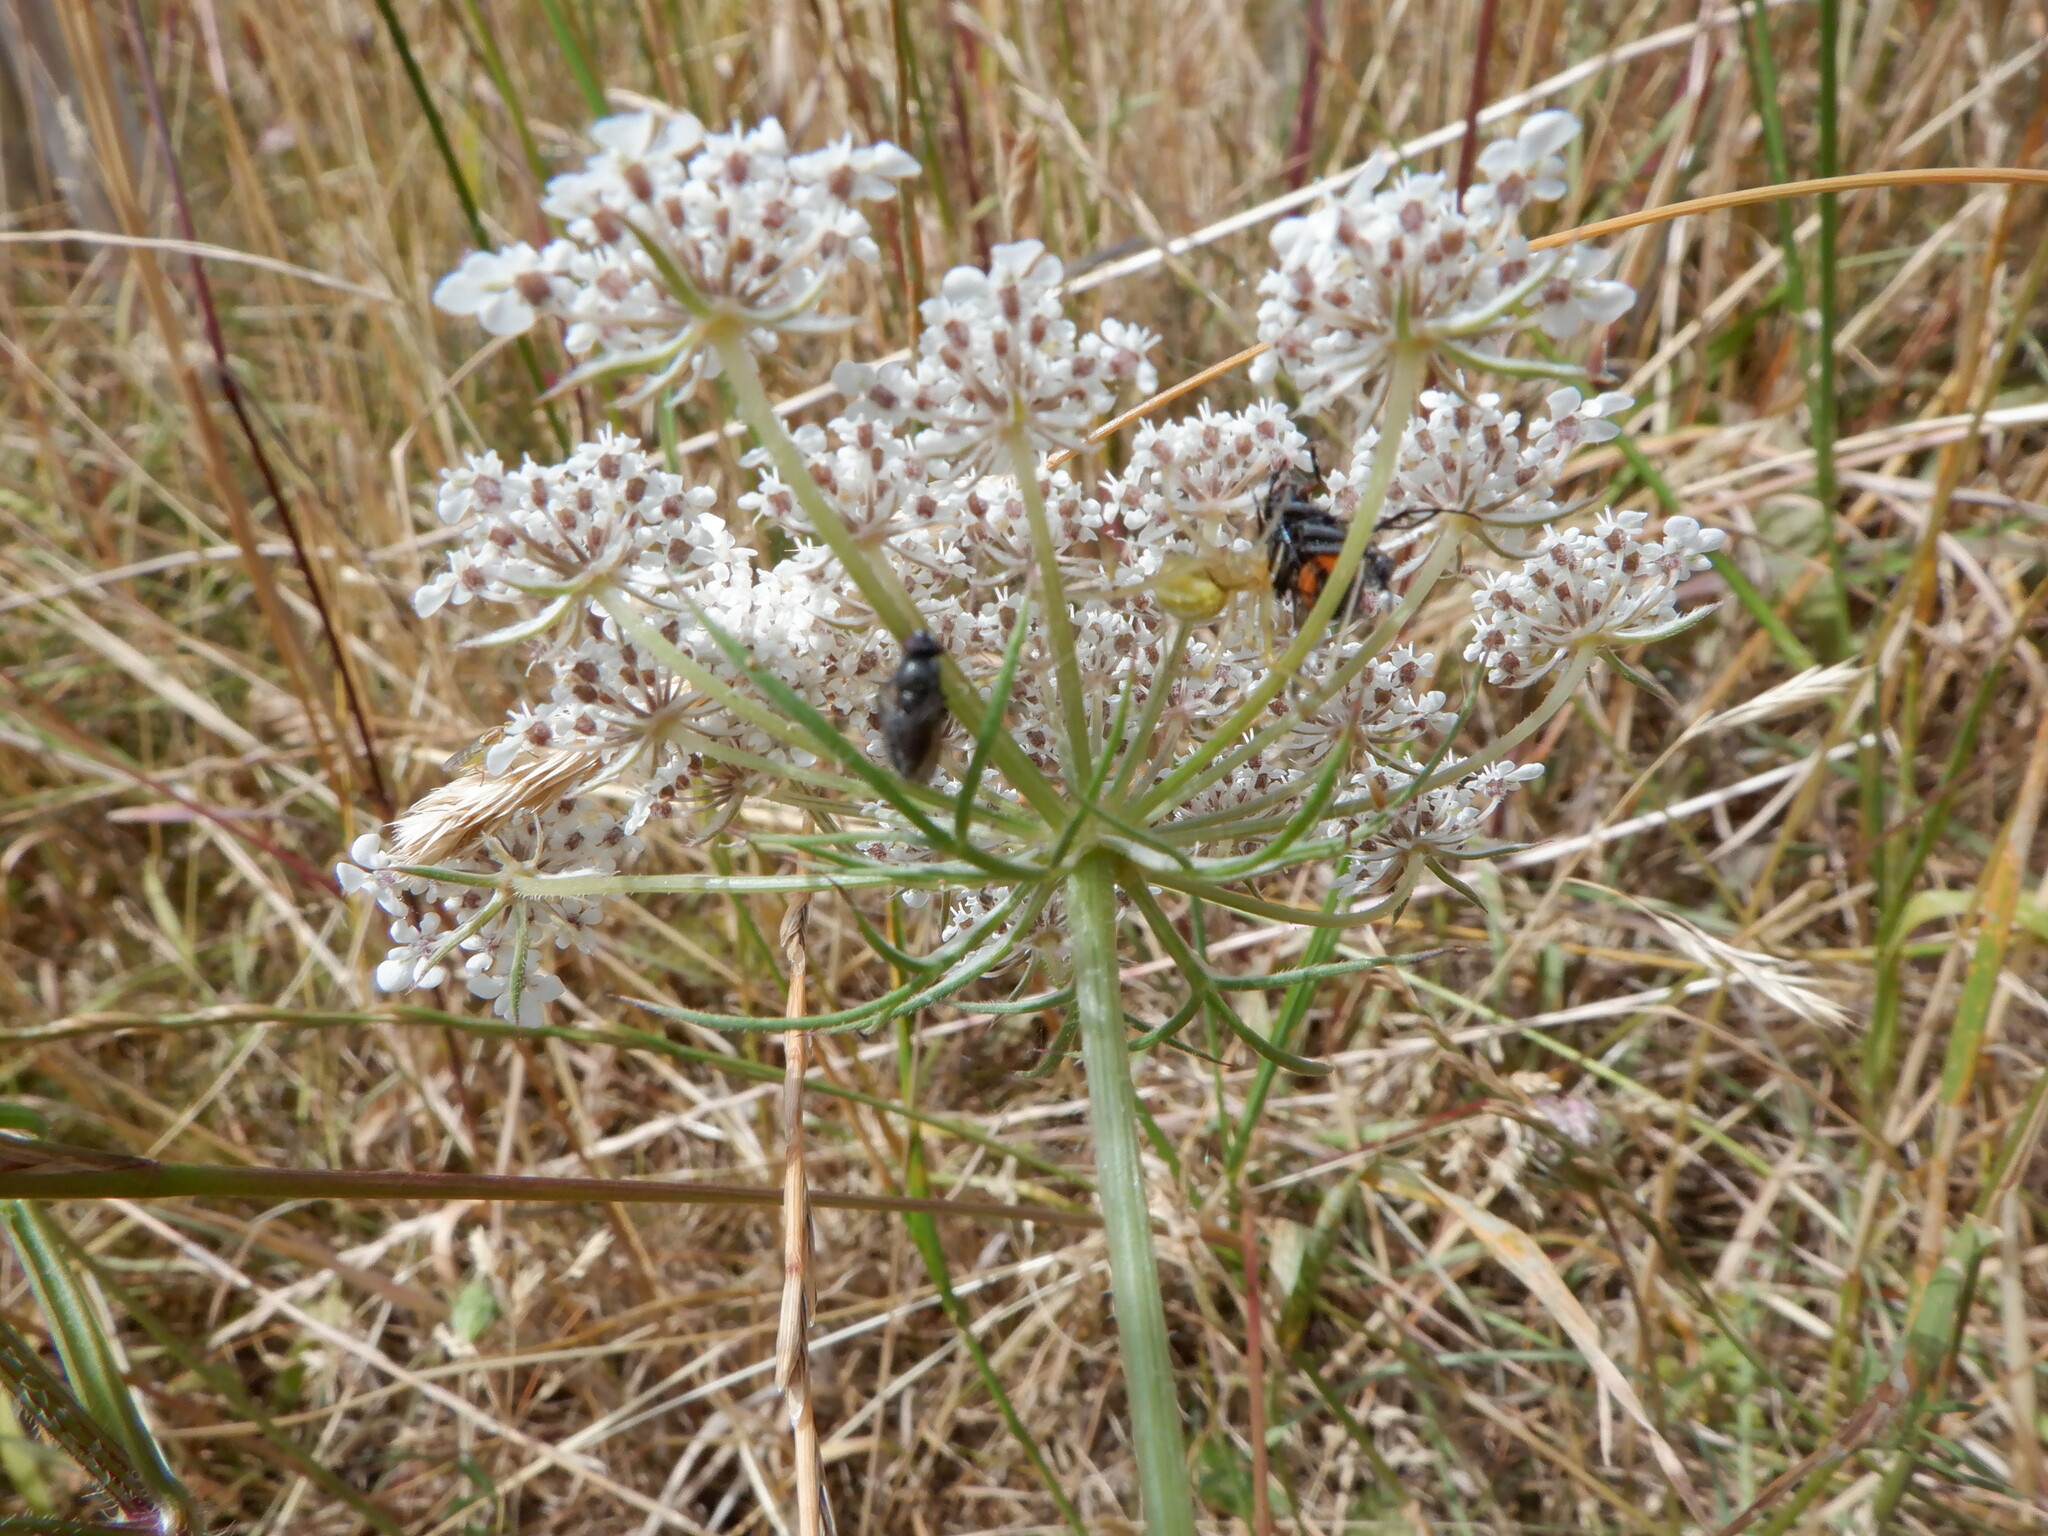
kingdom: Plantae
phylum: Tracheophyta
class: Magnoliopsida
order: Apiales
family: Apiaceae
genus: Daucus
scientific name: Daucus carota
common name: Wild carrot
